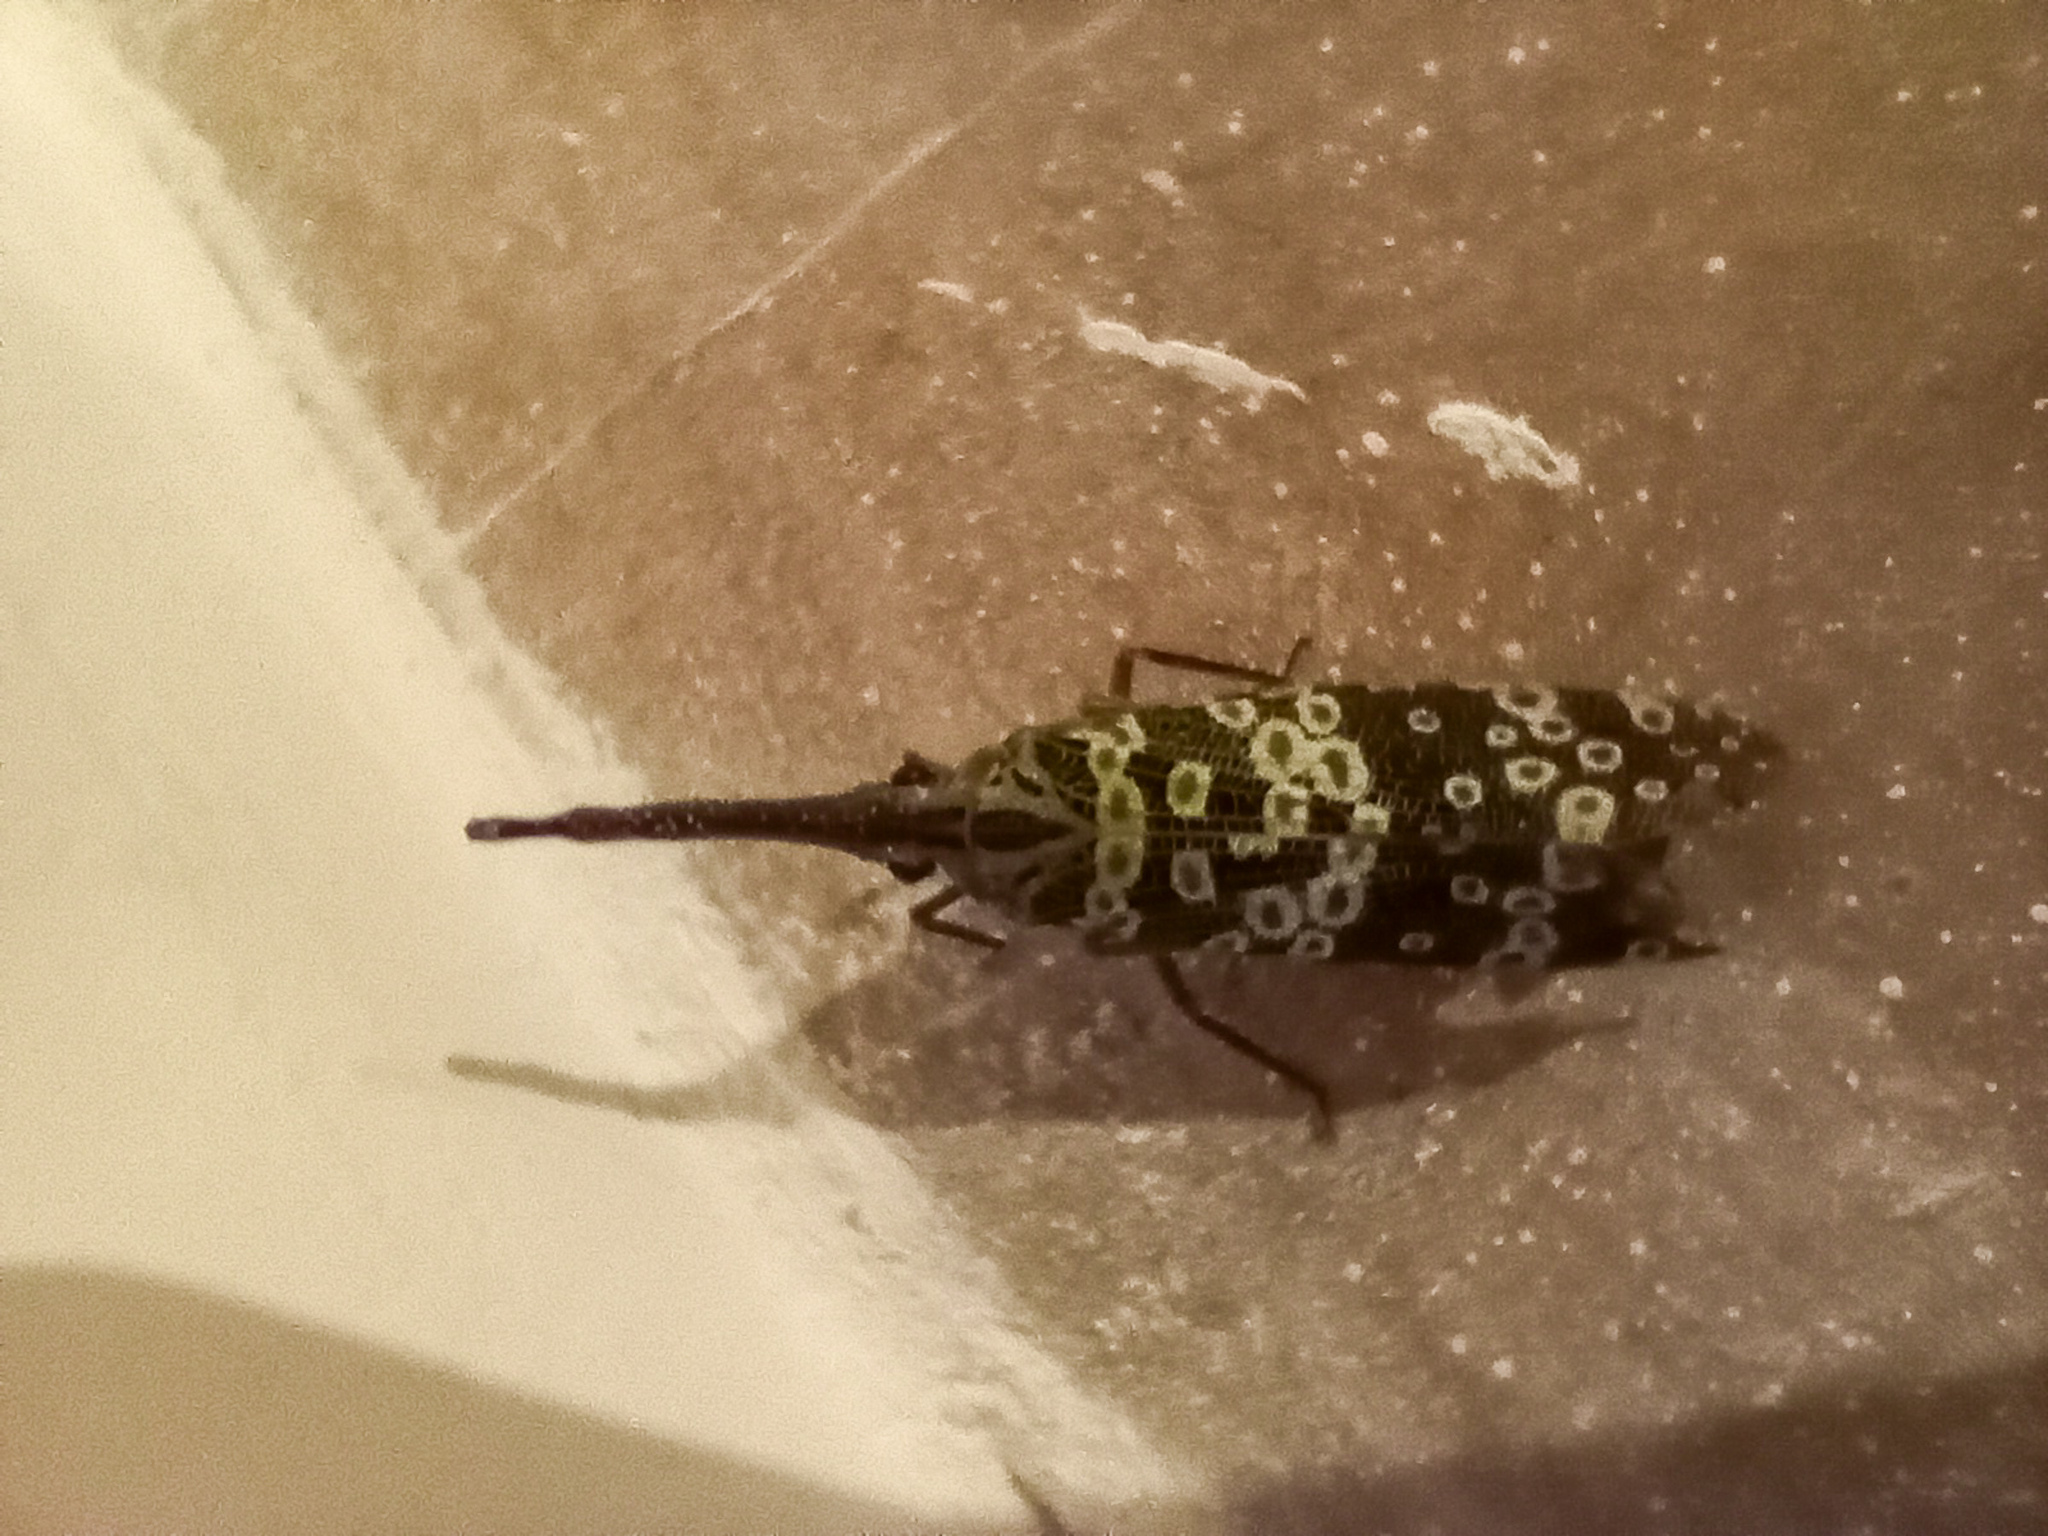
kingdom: Animalia
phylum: Arthropoda
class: Insecta
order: Hemiptera
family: Fulgoridae
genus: Pyrops
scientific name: Pyrops condorinus
